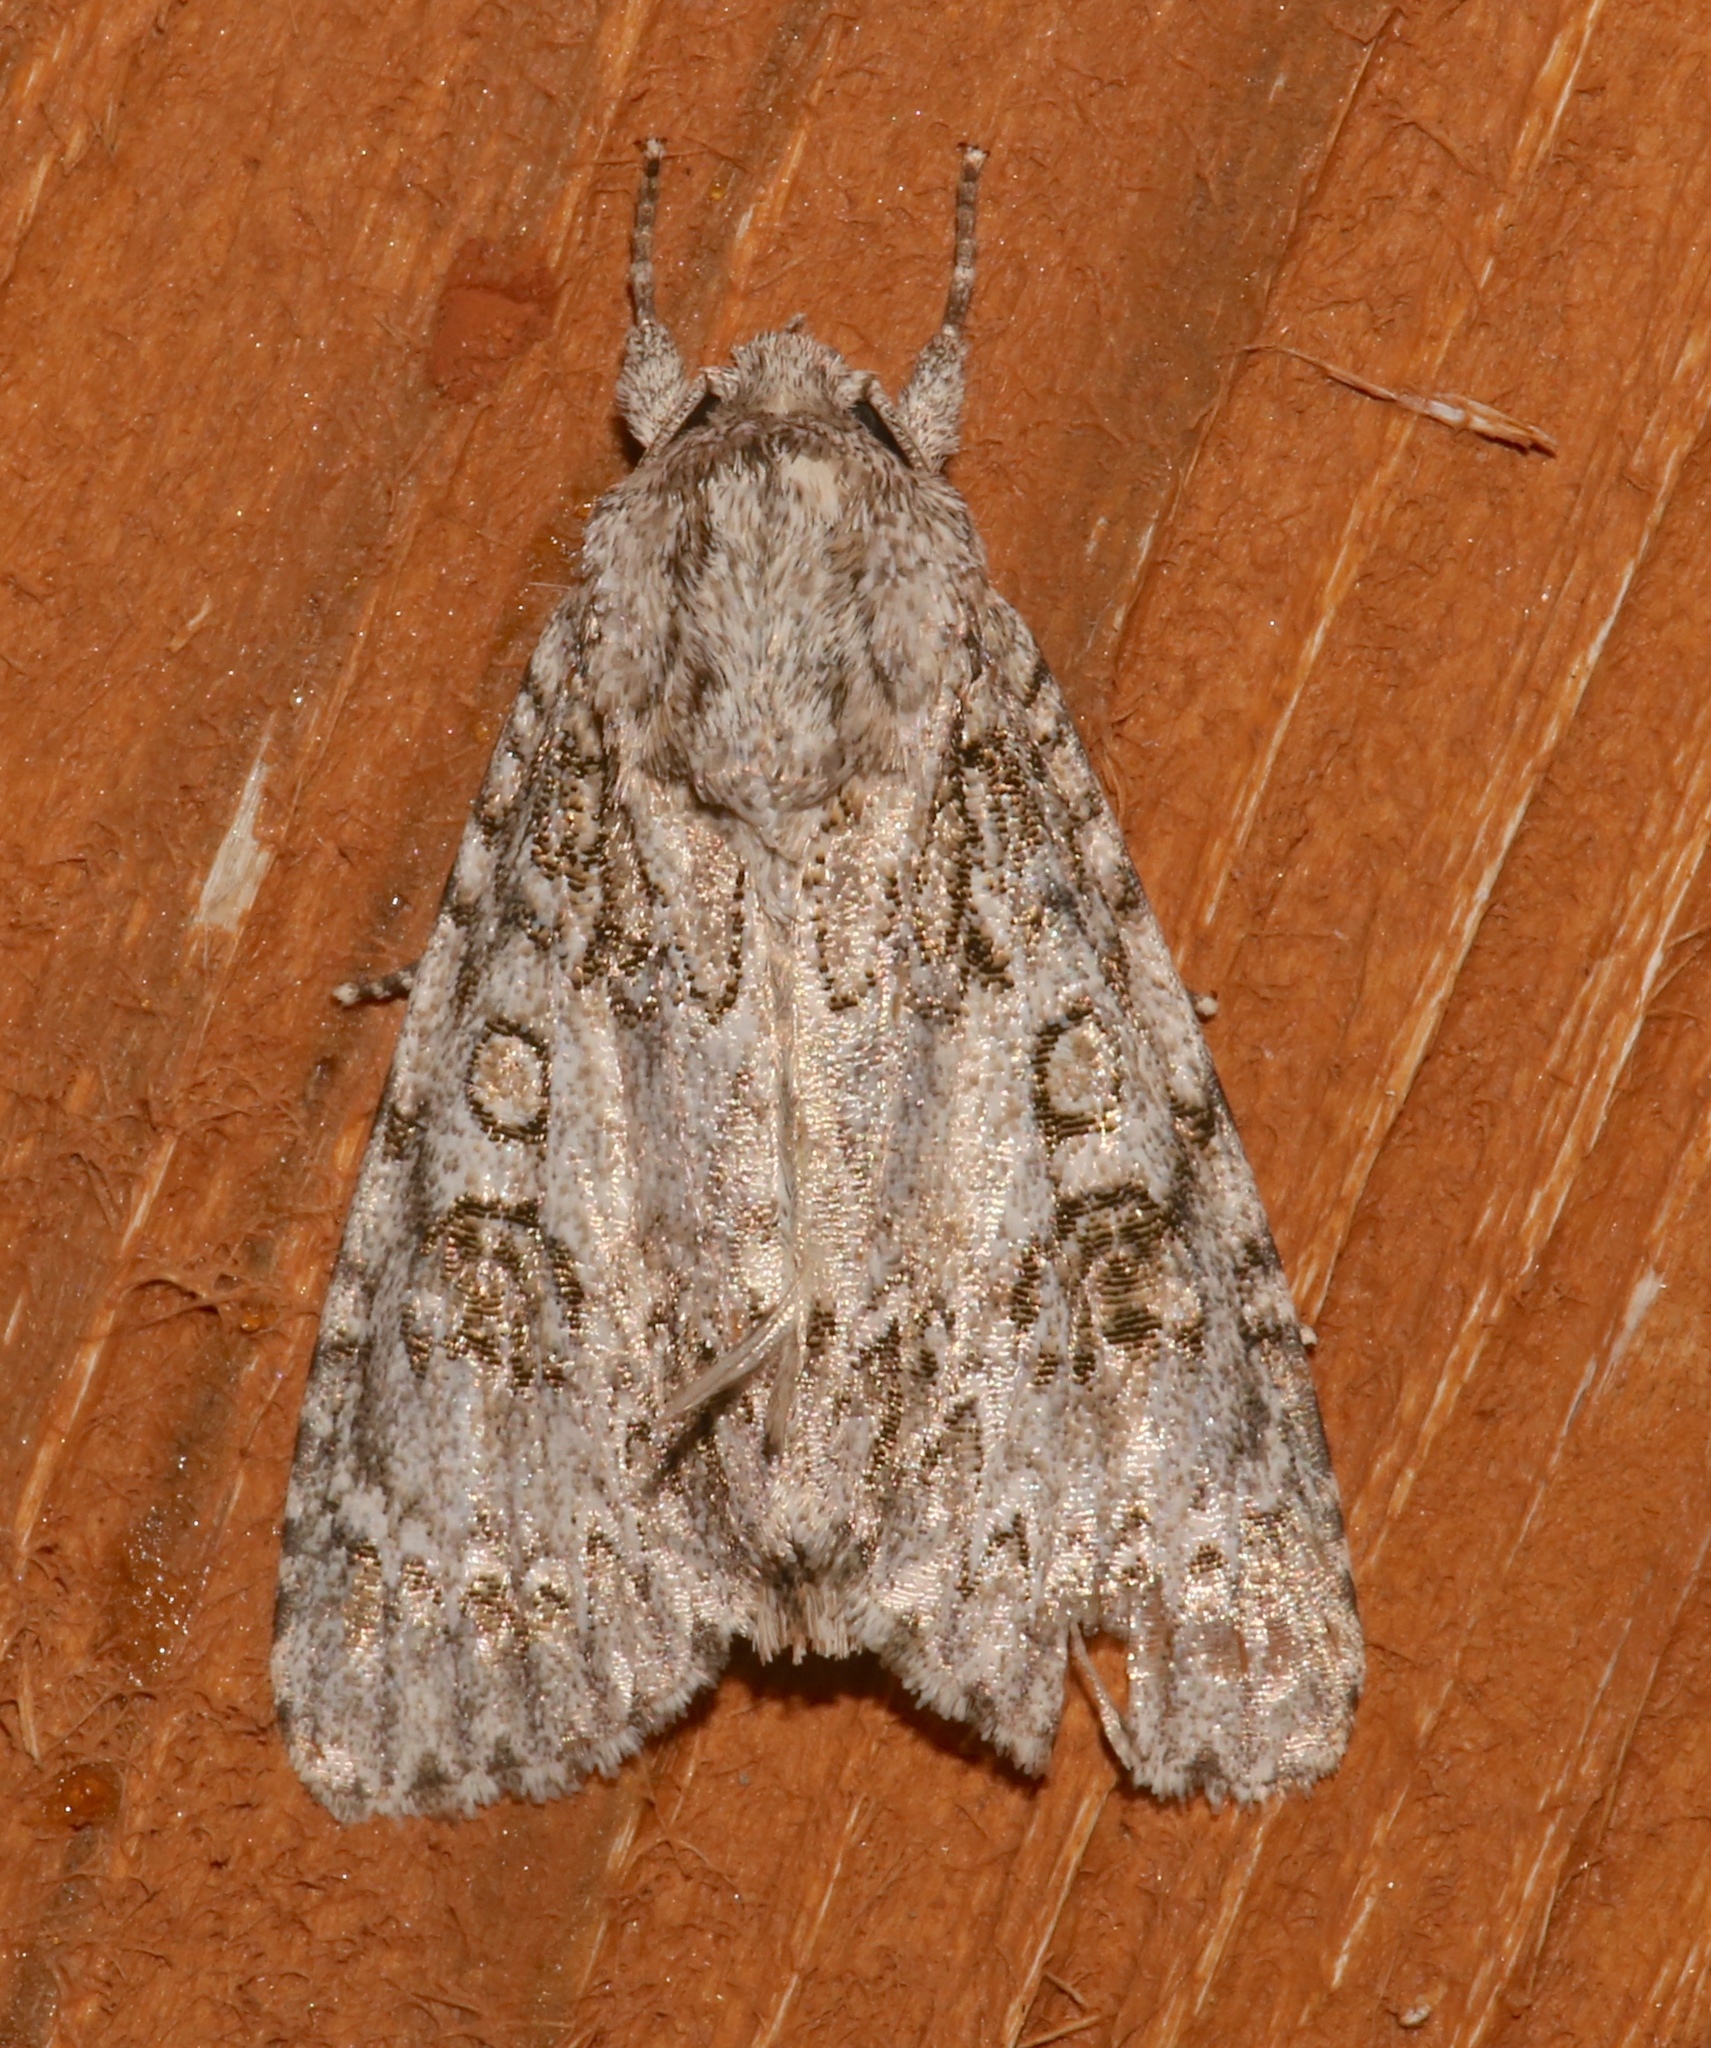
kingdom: Animalia
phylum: Arthropoda
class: Insecta
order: Lepidoptera
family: Noctuidae
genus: Acronicta
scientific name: Acronicta rubricoma
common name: Hackberry dagger
